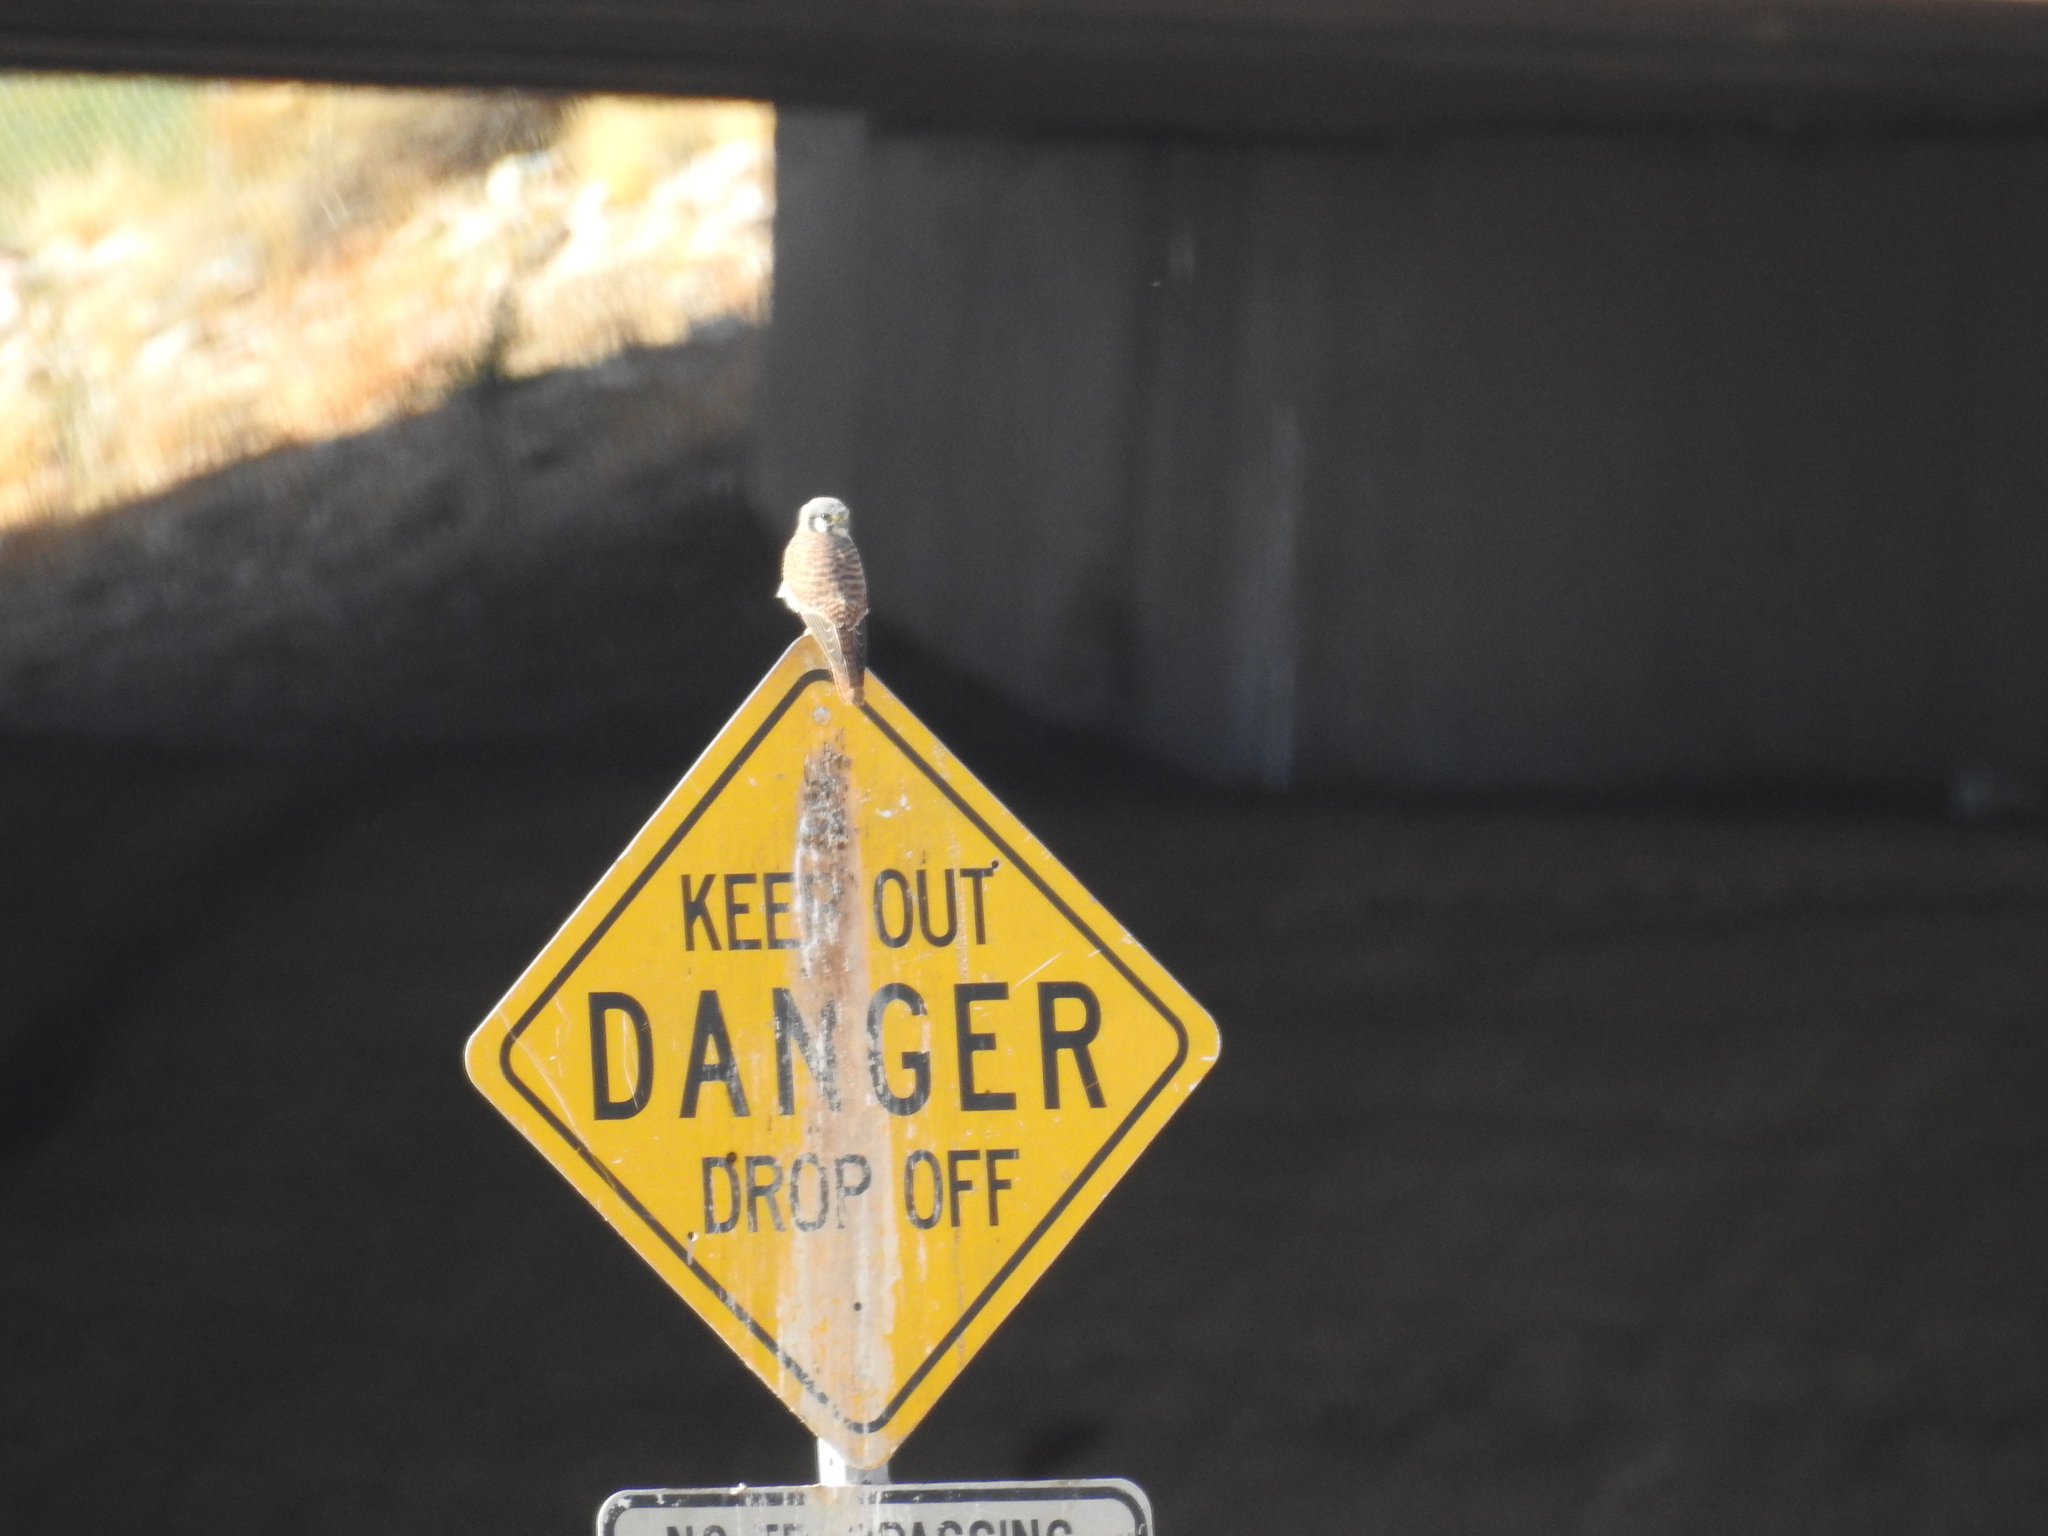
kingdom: Animalia
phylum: Chordata
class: Aves
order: Falconiformes
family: Falconidae
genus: Falco
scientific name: Falco sparverius
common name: American kestrel
